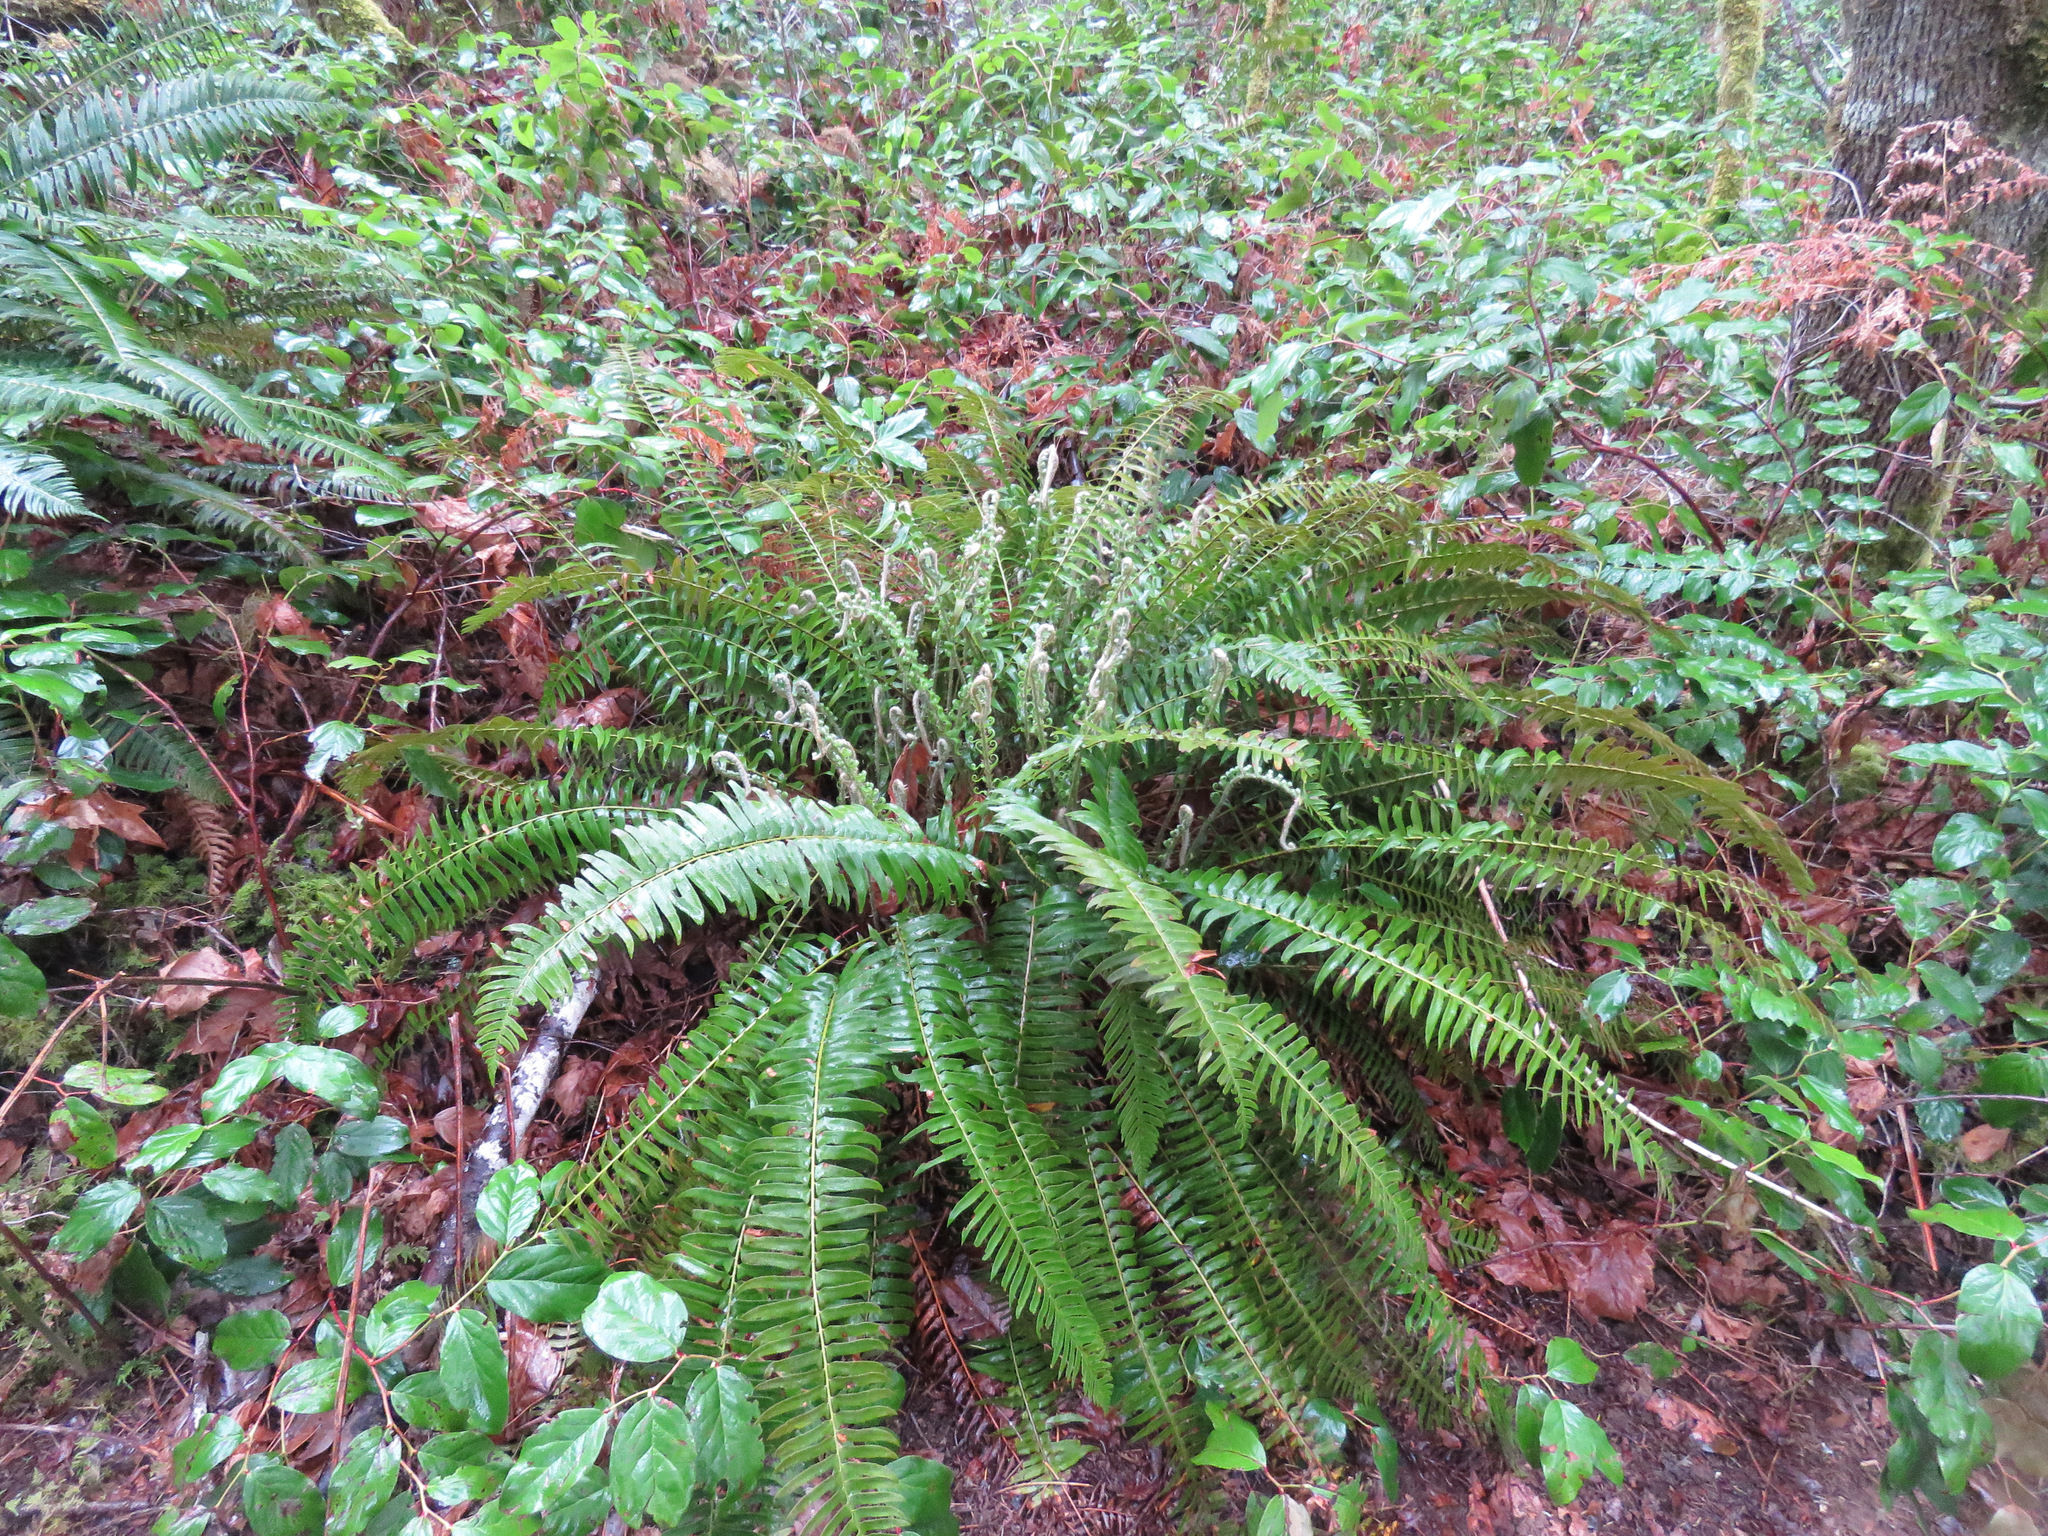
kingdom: Plantae
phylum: Tracheophyta
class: Polypodiopsida
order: Polypodiales
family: Dryopteridaceae
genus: Polystichum
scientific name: Polystichum munitum
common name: Western sword-fern
